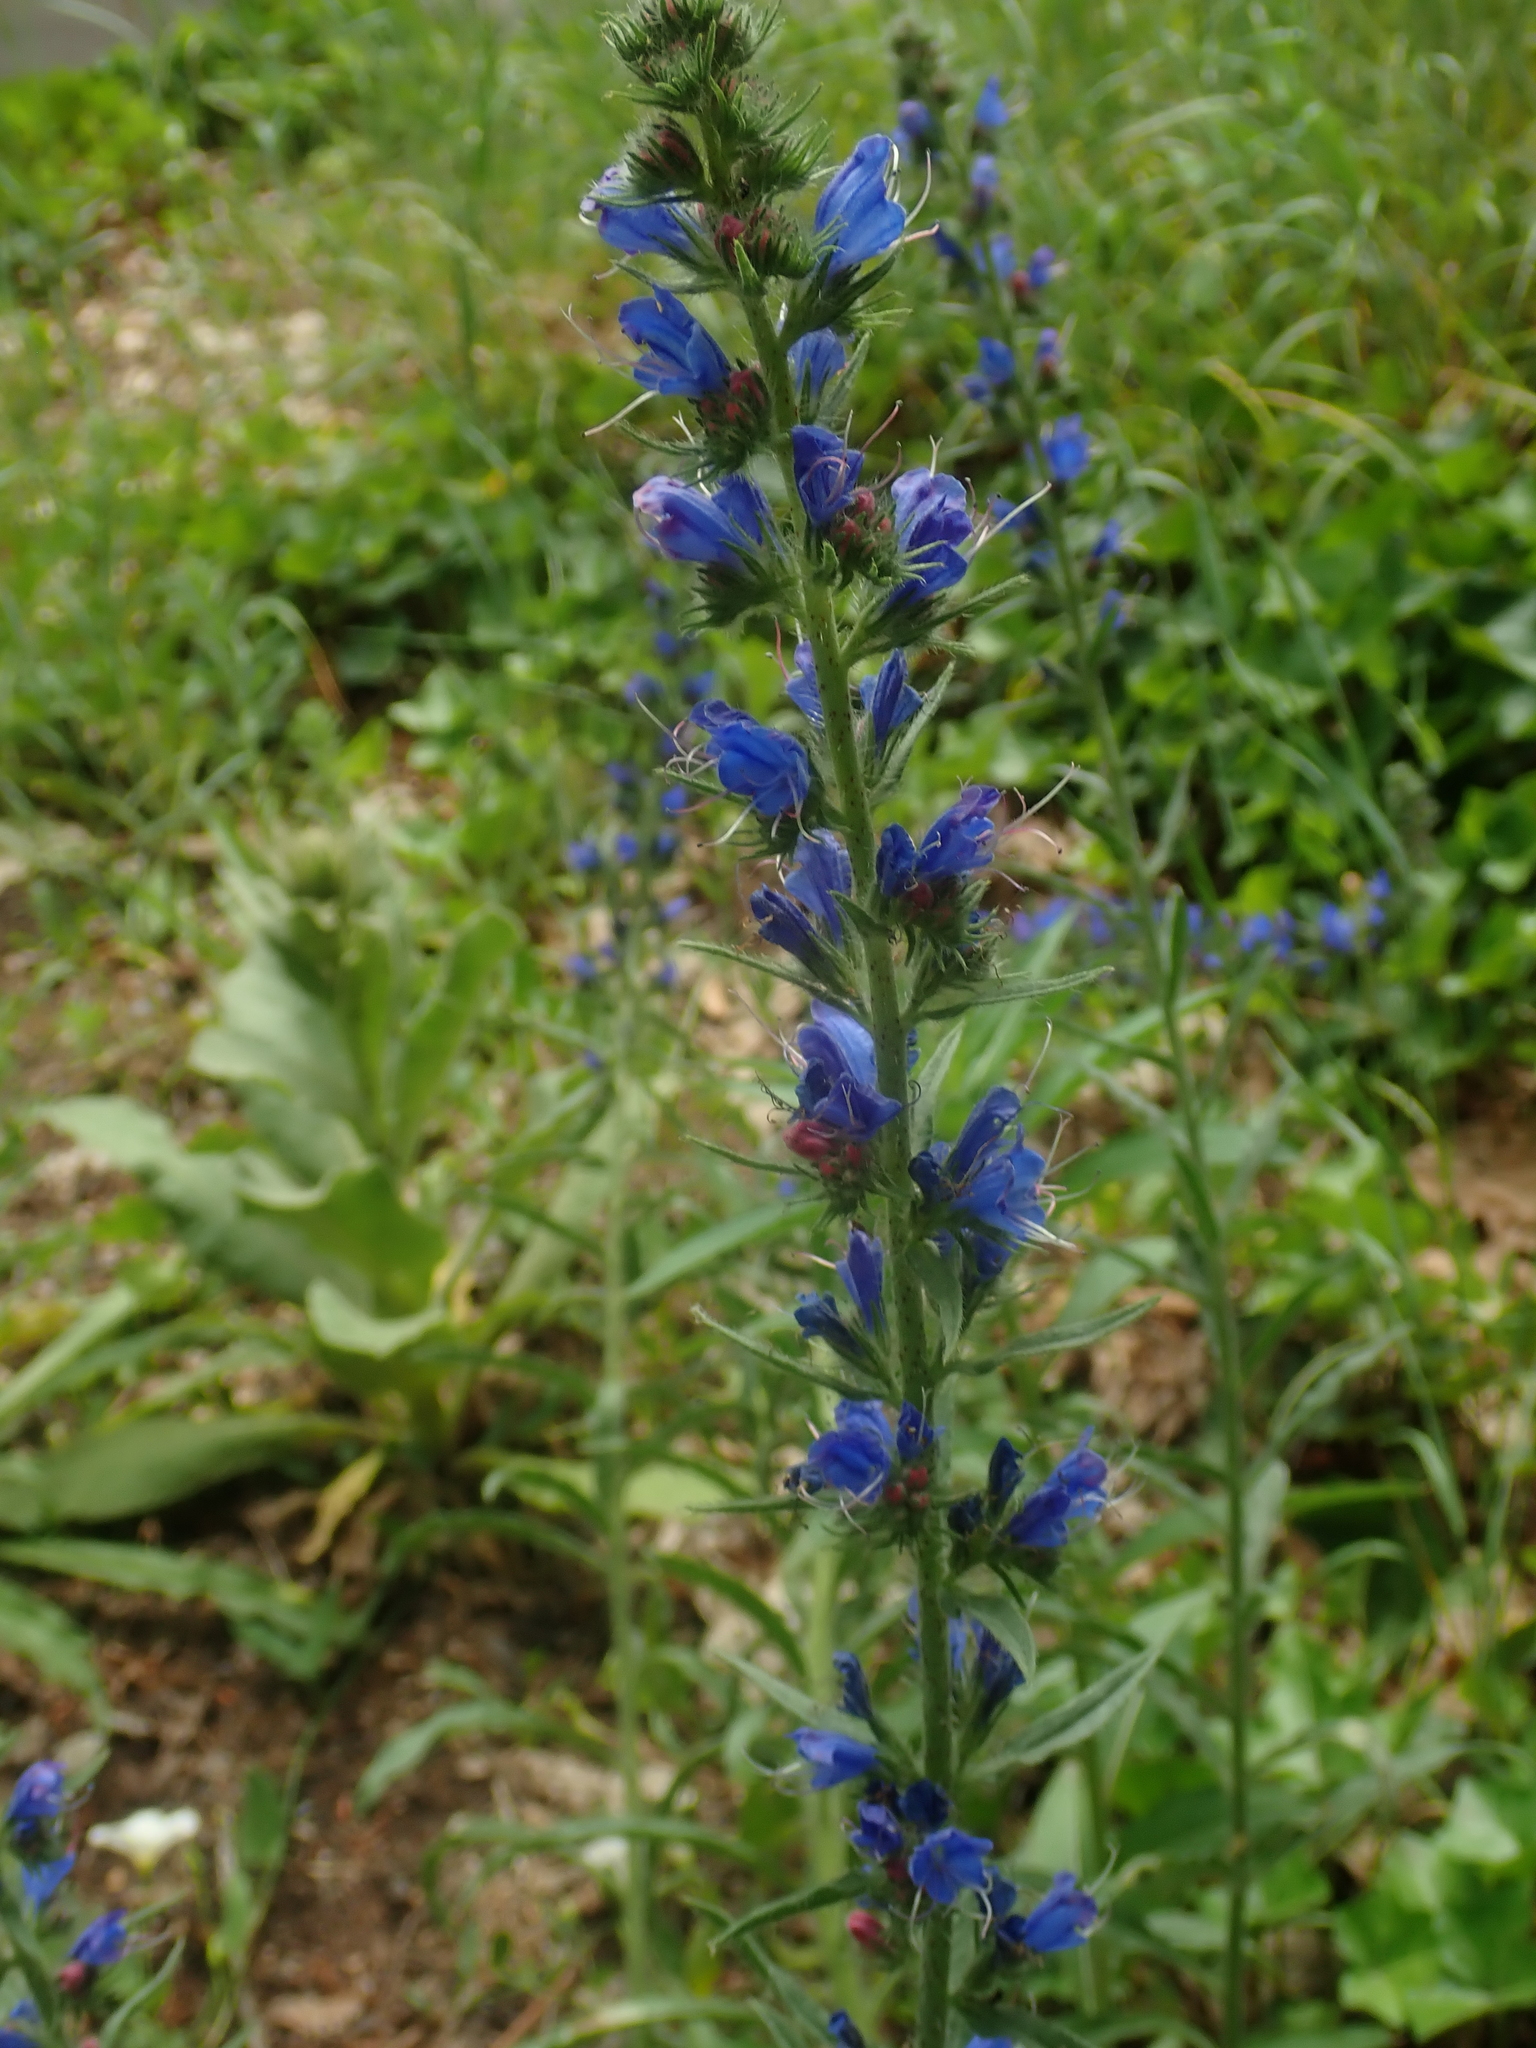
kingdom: Plantae
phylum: Tracheophyta
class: Magnoliopsida
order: Boraginales
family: Boraginaceae
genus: Echium
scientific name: Echium vulgare
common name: Common viper's bugloss
